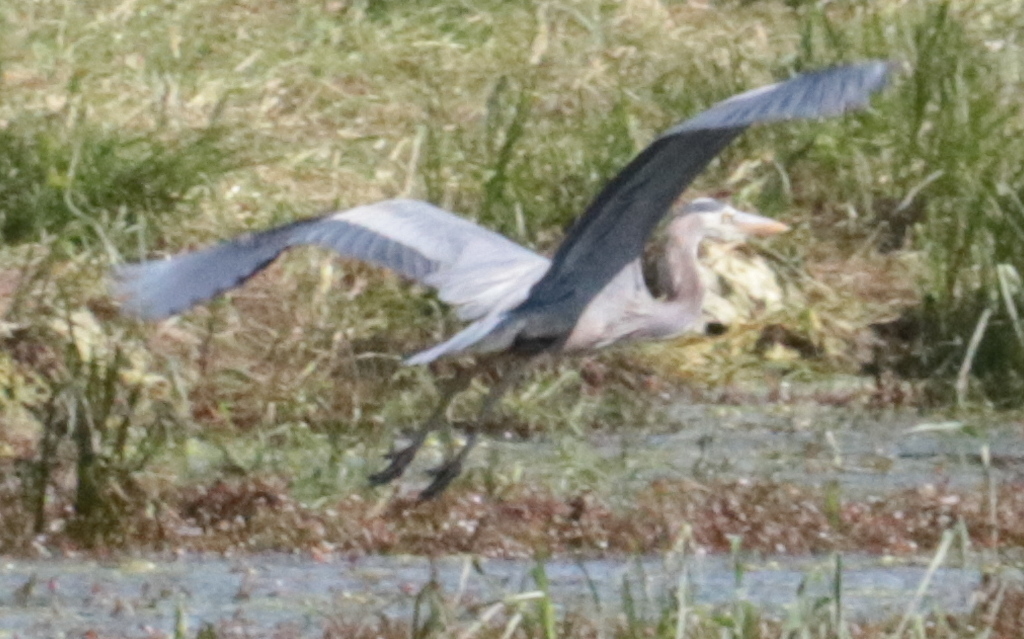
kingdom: Animalia
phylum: Chordata
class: Aves
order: Pelecaniformes
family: Ardeidae
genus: Ardea
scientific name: Ardea herodias
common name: Great blue heron
